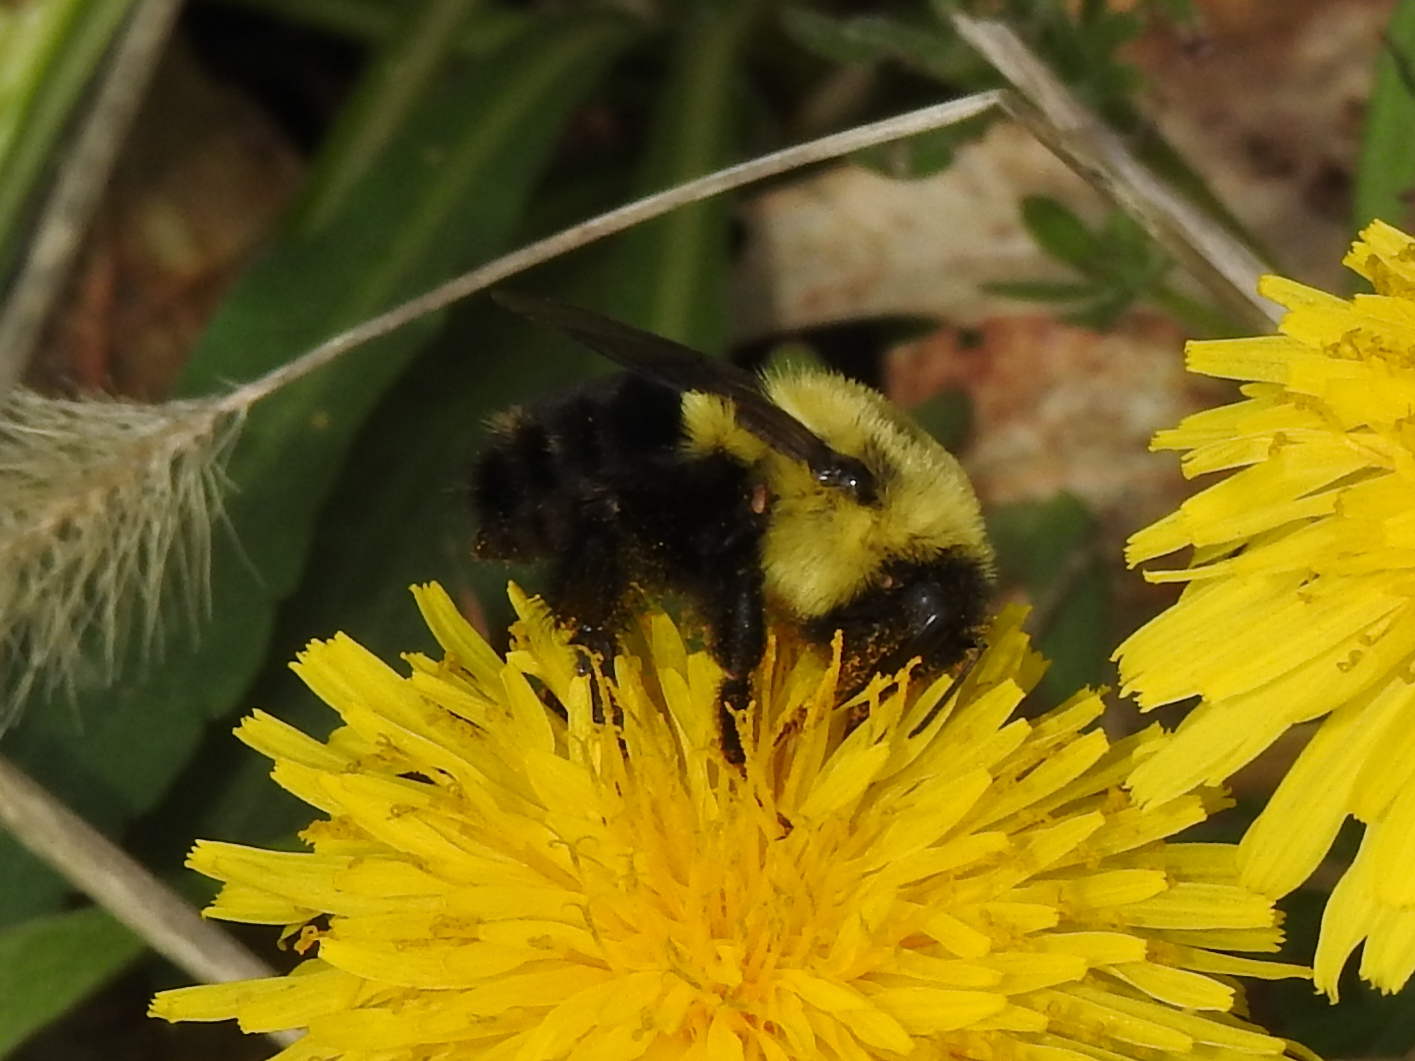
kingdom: Animalia
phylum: Arthropoda
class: Insecta
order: Hymenoptera
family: Apidae
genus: Bombus
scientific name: Bombus impatiens
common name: Common eastern bumble bee
